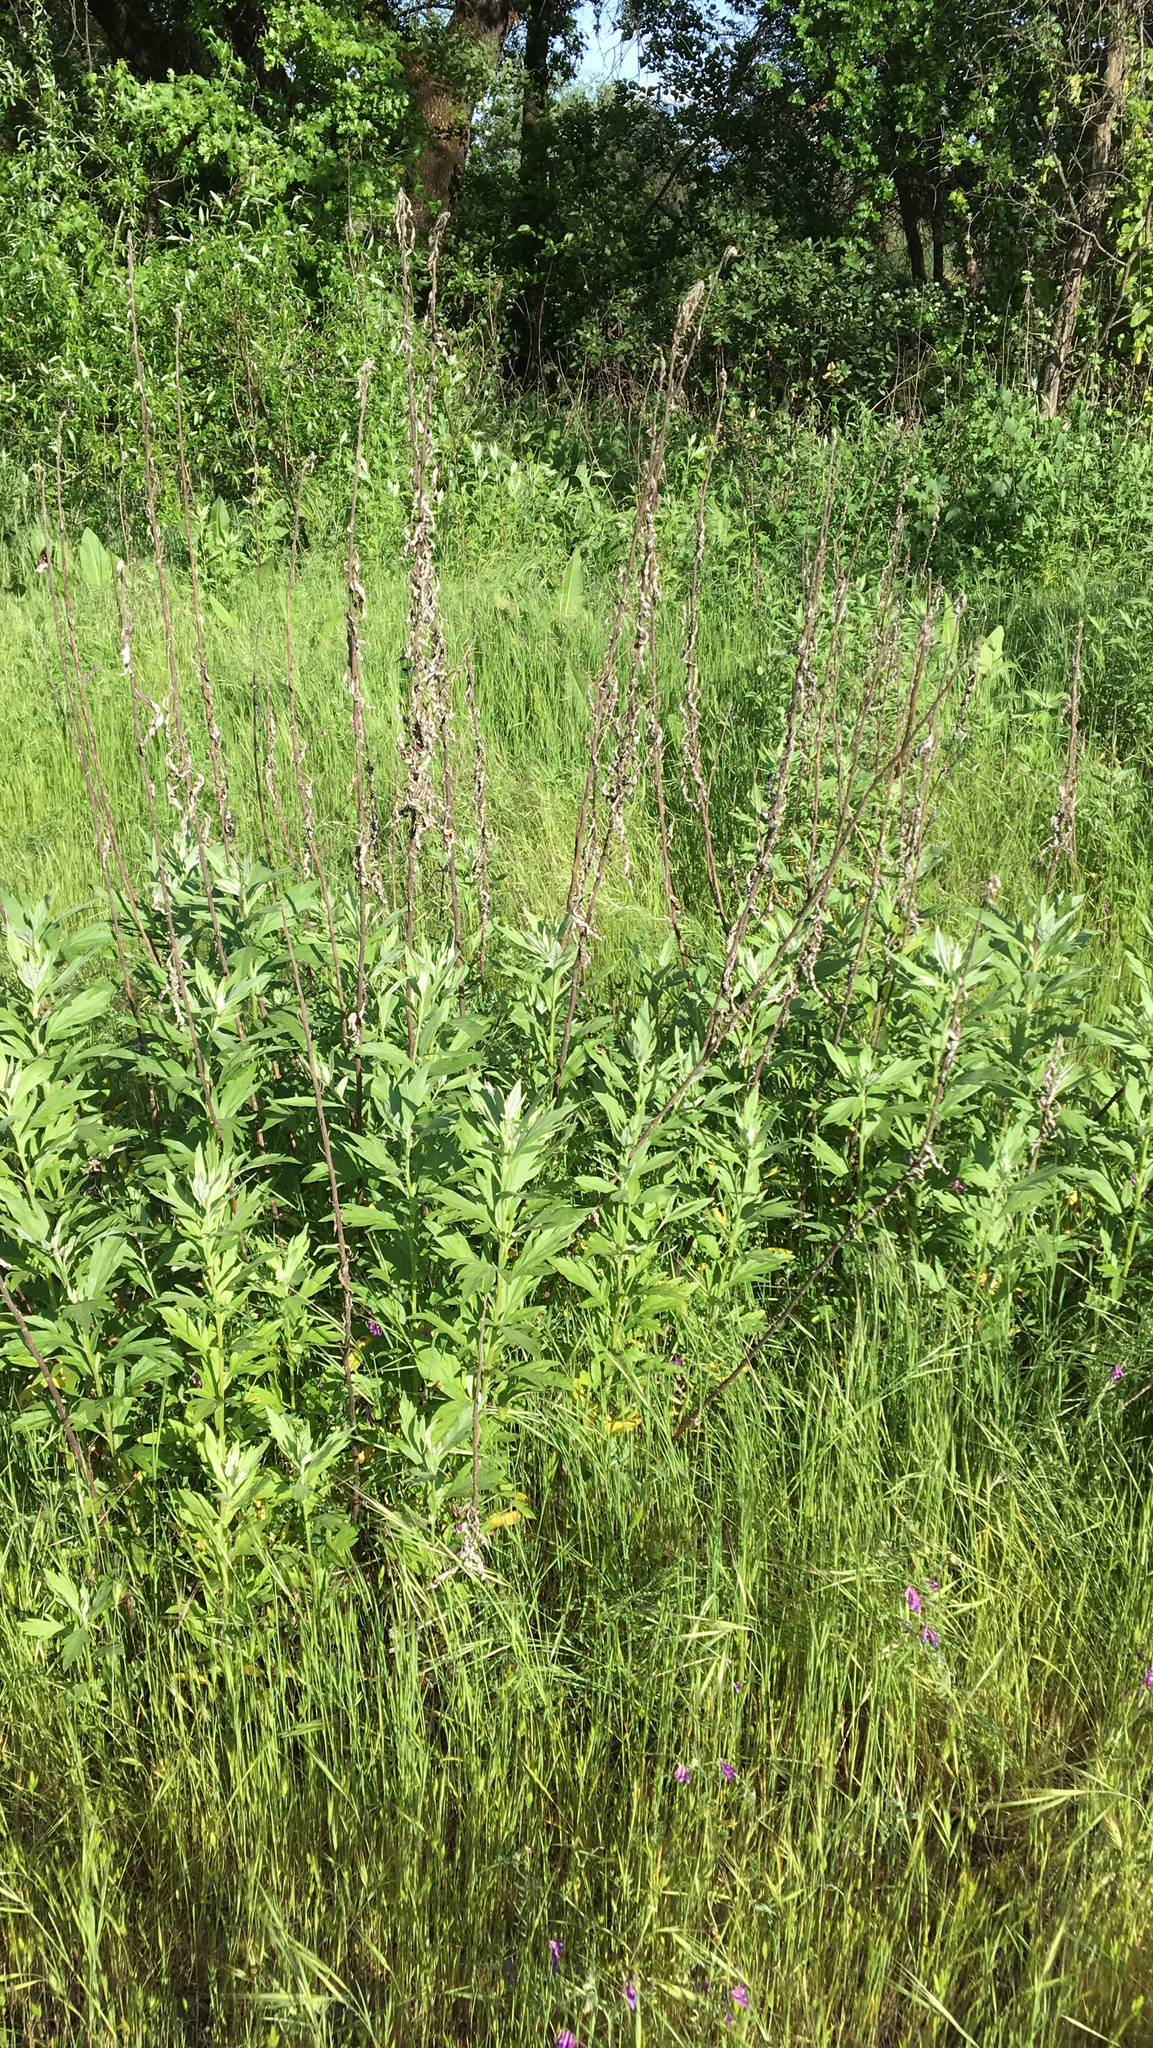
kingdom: Plantae
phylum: Tracheophyta
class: Magnoliopsida
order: Asterales
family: Asteraceae
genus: Artemisia
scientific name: Artemisia douglasiana
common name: Northwest mugwort
